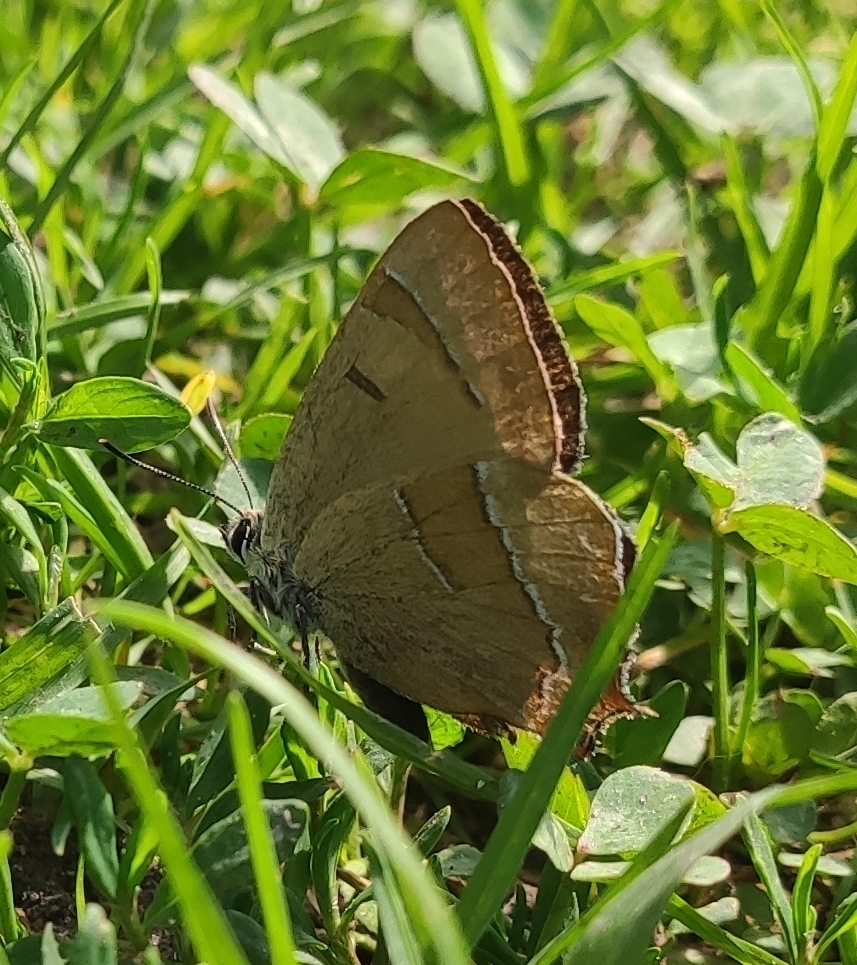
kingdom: Animalia
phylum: Arthropoda
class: Insecta
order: Lepidoptera
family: Lycaenidae
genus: Thecla
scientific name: Thecla betulae
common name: Brown hairstreak
